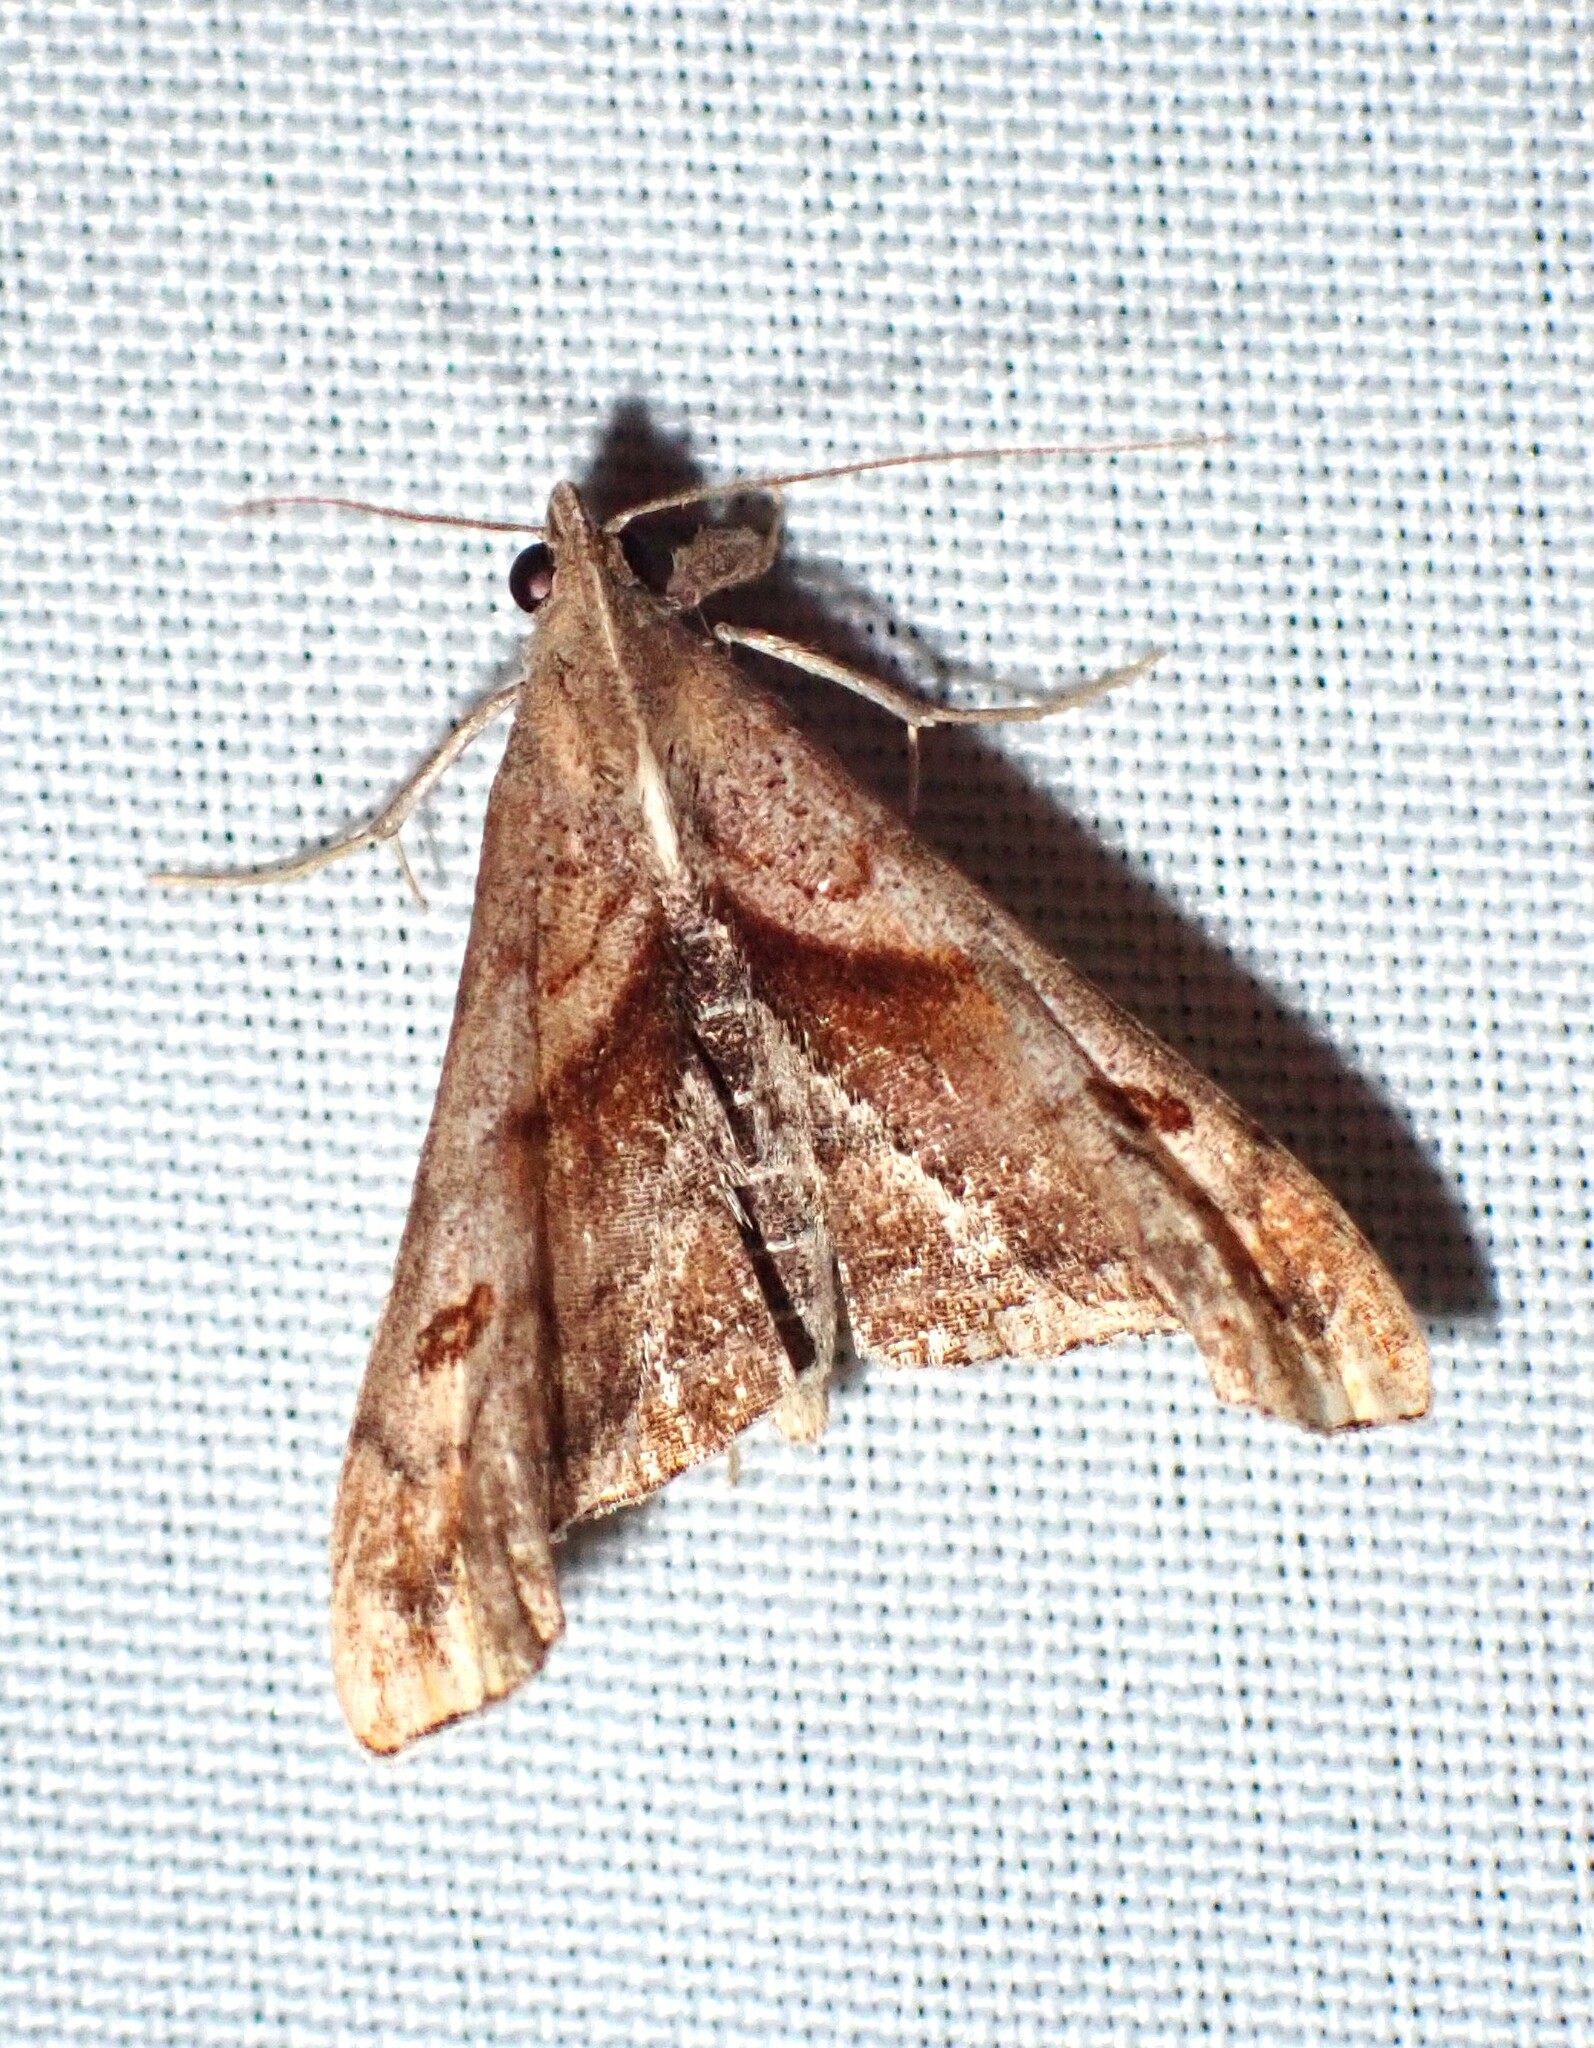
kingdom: Animalia
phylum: Arthropoda
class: Insecta
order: Lepidoptera
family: Erebidae
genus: Palthis
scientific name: Palthis angulalis
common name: Dark-spotted palthis moth
